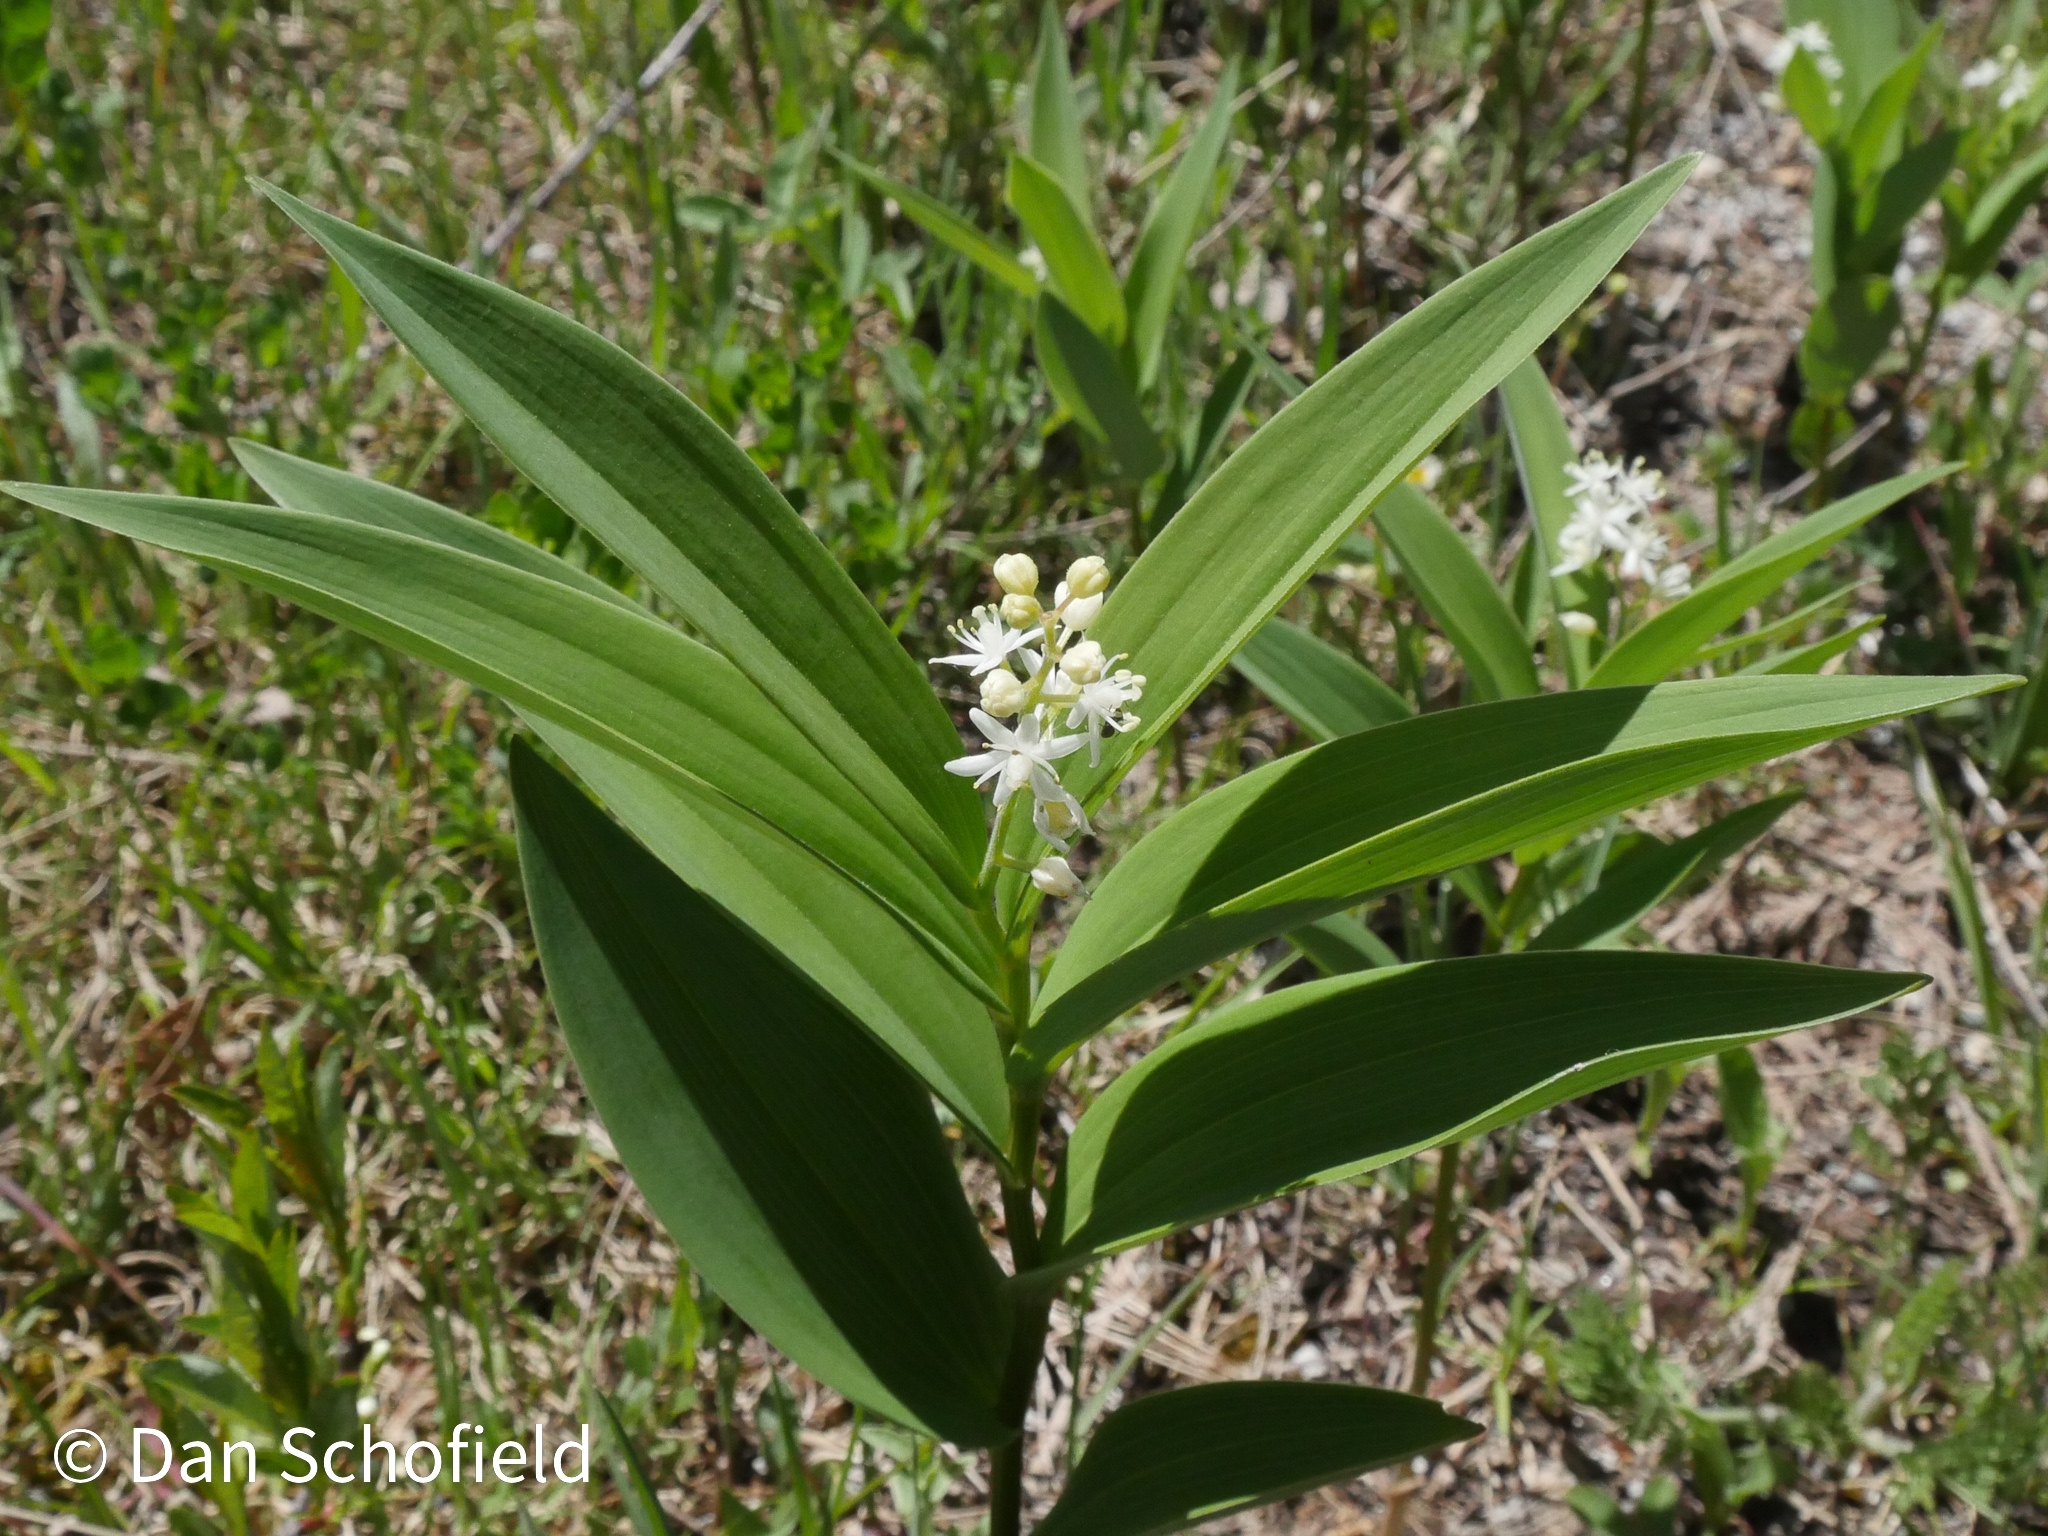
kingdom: Plantae
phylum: Tracheophyta
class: Liliopsida
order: Asparagales
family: Asparagaceae
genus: Maianthemum
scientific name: Maianthemum stellatum
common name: Little false solomon's seal
